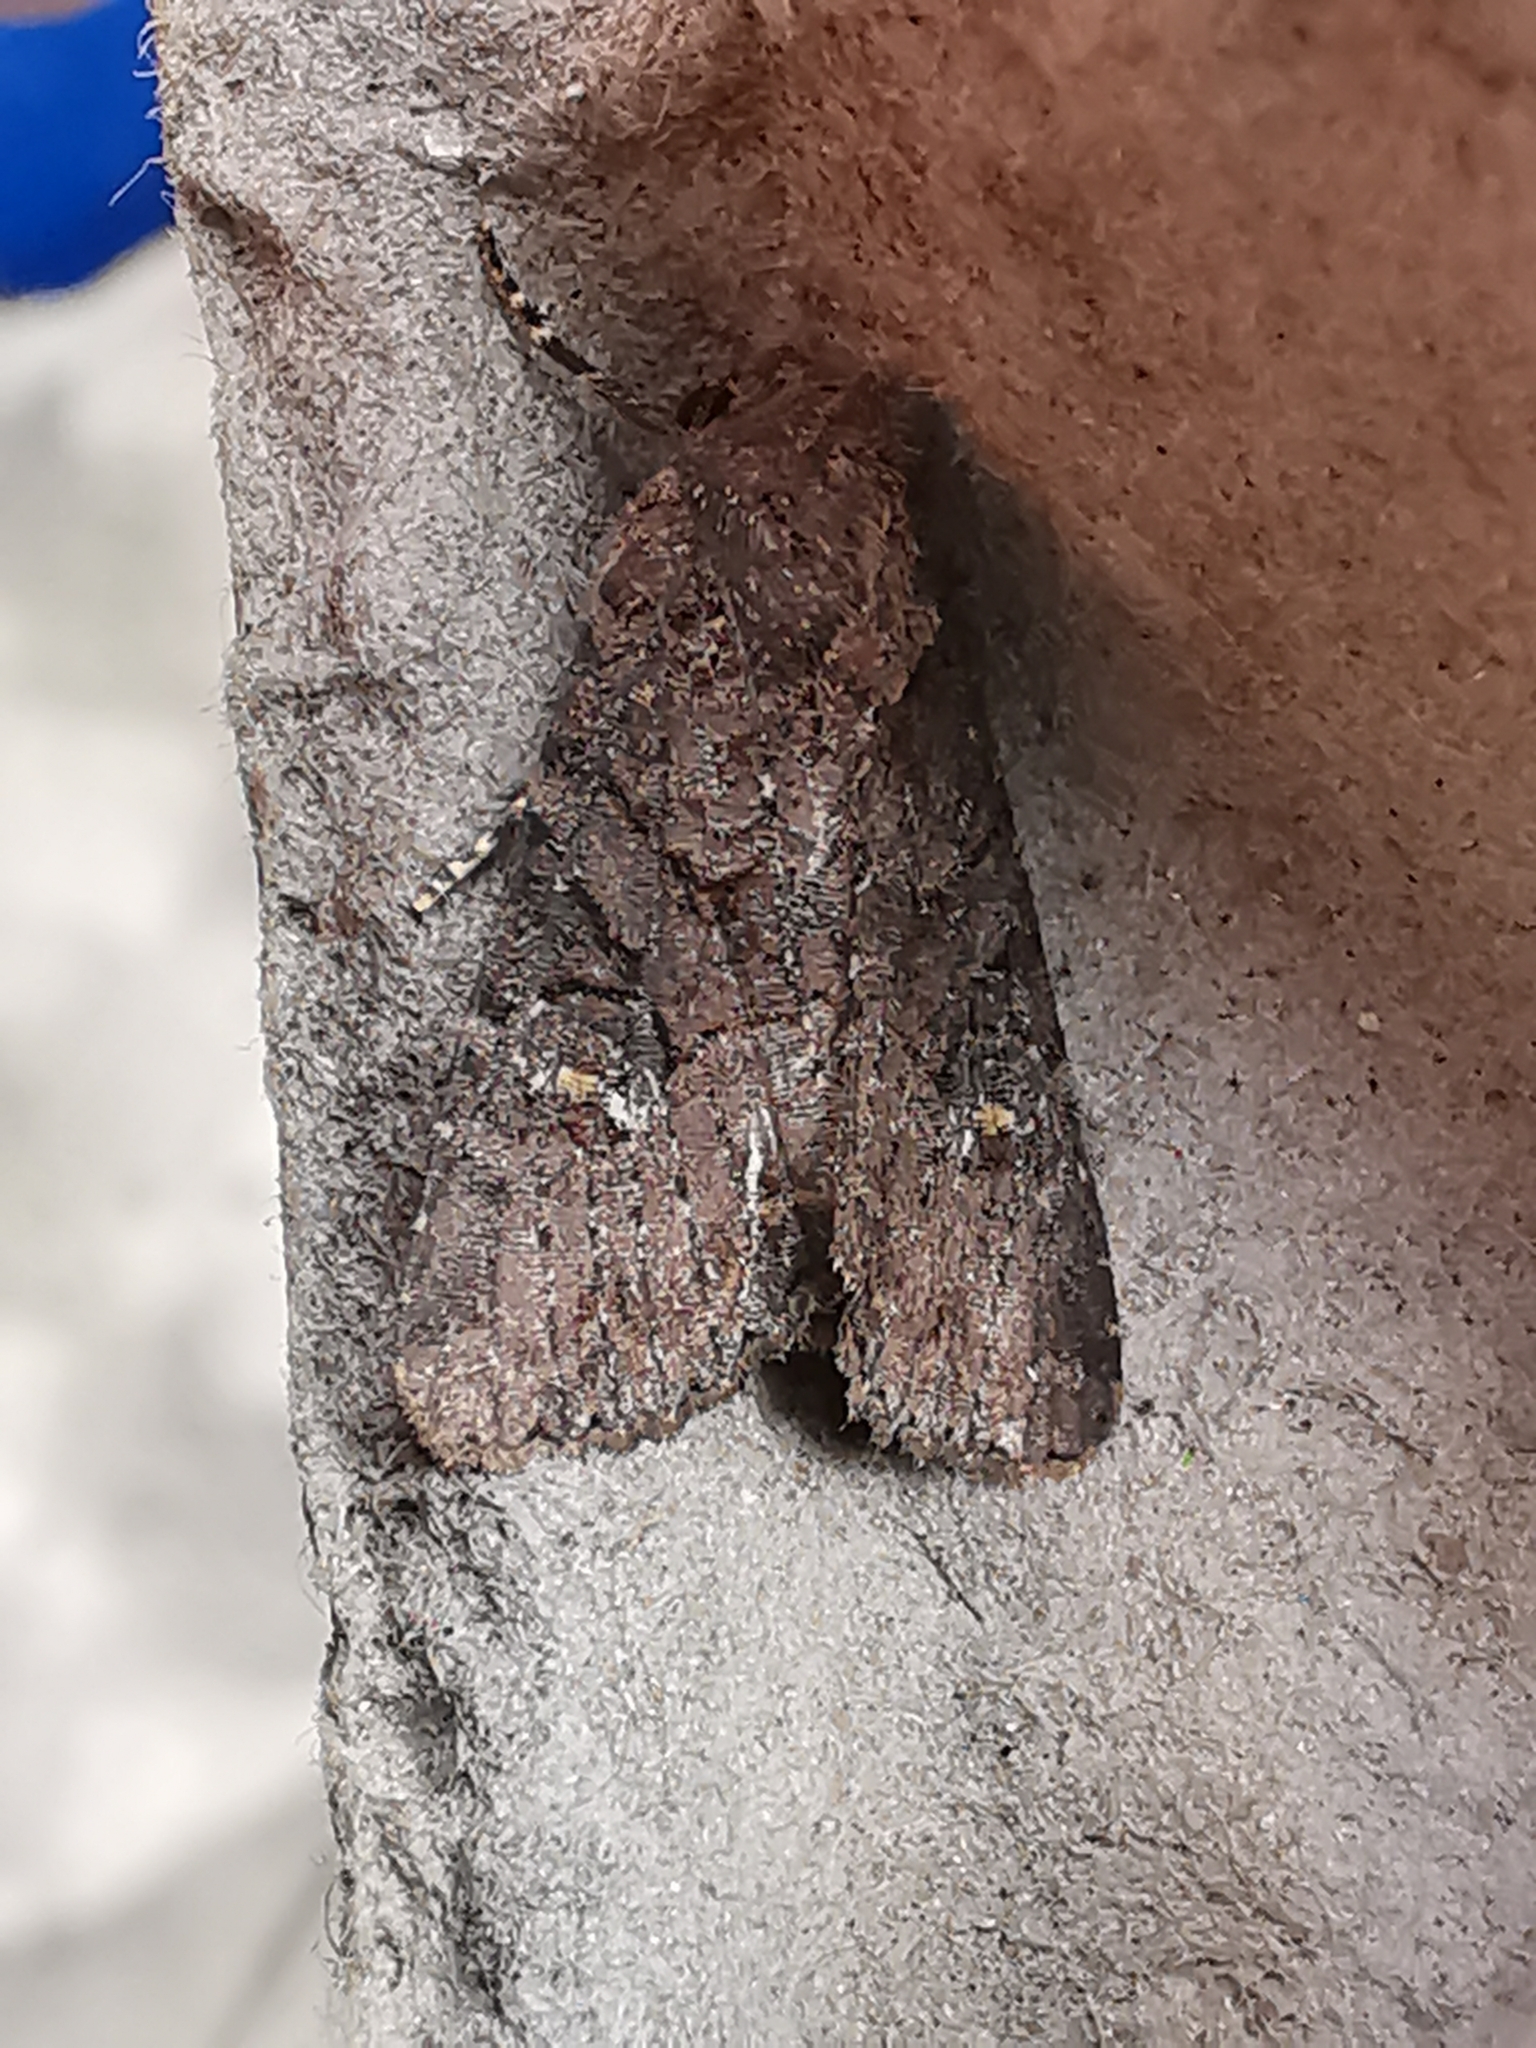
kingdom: Animalia
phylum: Arthropoda
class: Insecta
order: Lepidoptera
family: Noctuidae
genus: Mesapamea
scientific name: Mesapamea
